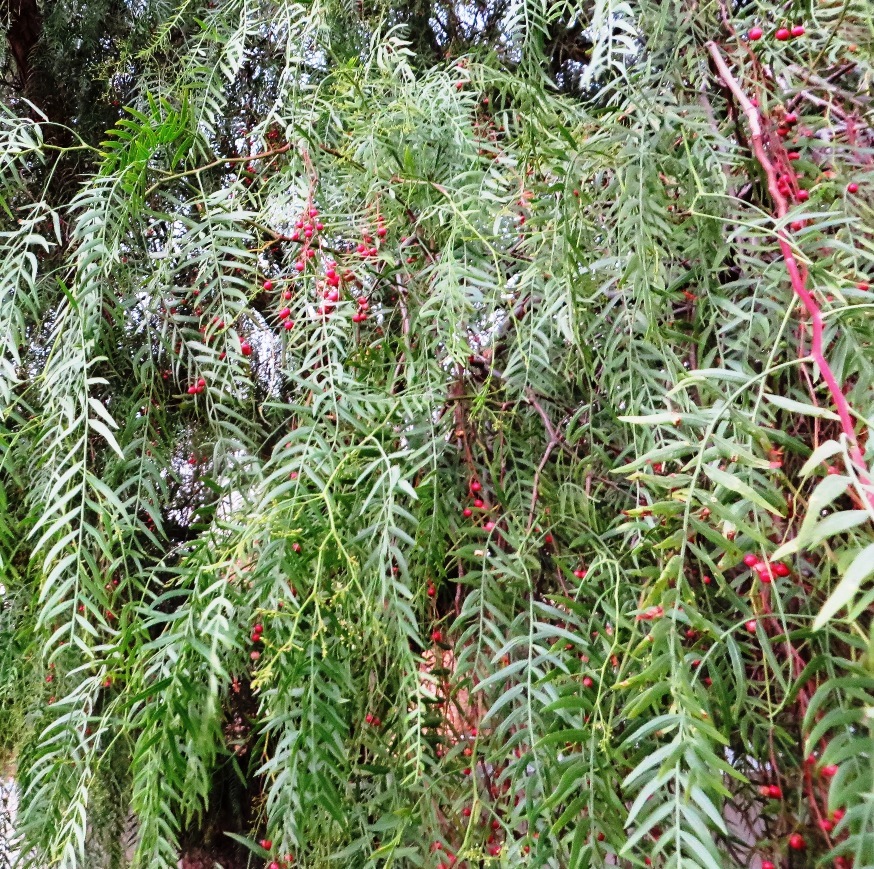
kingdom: Plantae
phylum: Tracheophyta
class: Magnoliopsida
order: Sapindales
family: Anacardiaceae
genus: Schinus
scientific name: Schinus molle
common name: Peruvian peppertree
